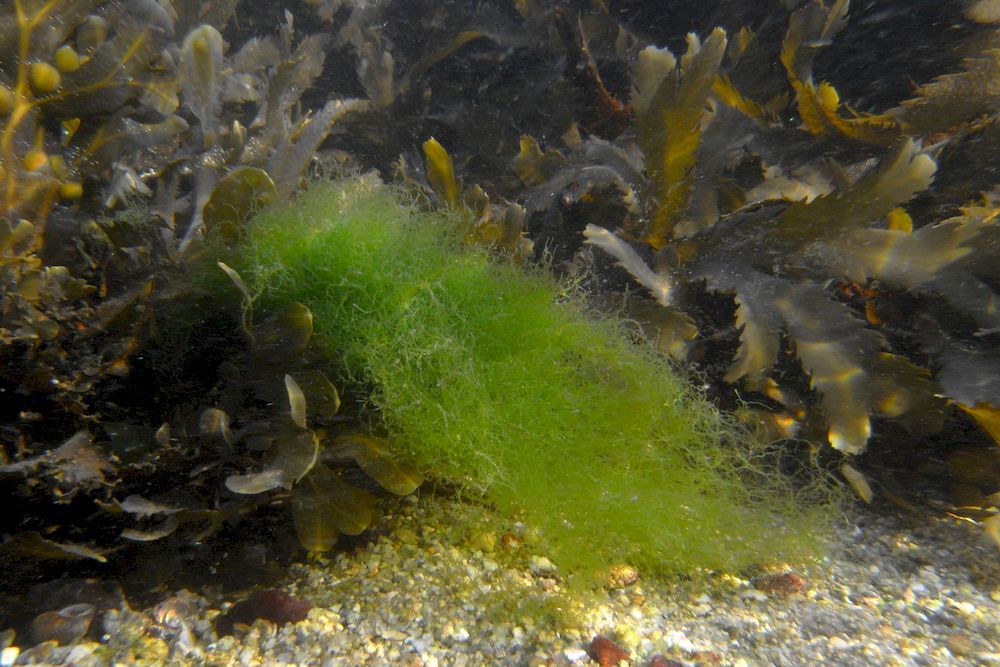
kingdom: Chromista
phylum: Ochrophyta
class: Phaeophyceae
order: Fucales
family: Fucaceae
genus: Fucus
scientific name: Fucus serratus
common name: Toothed wrack
